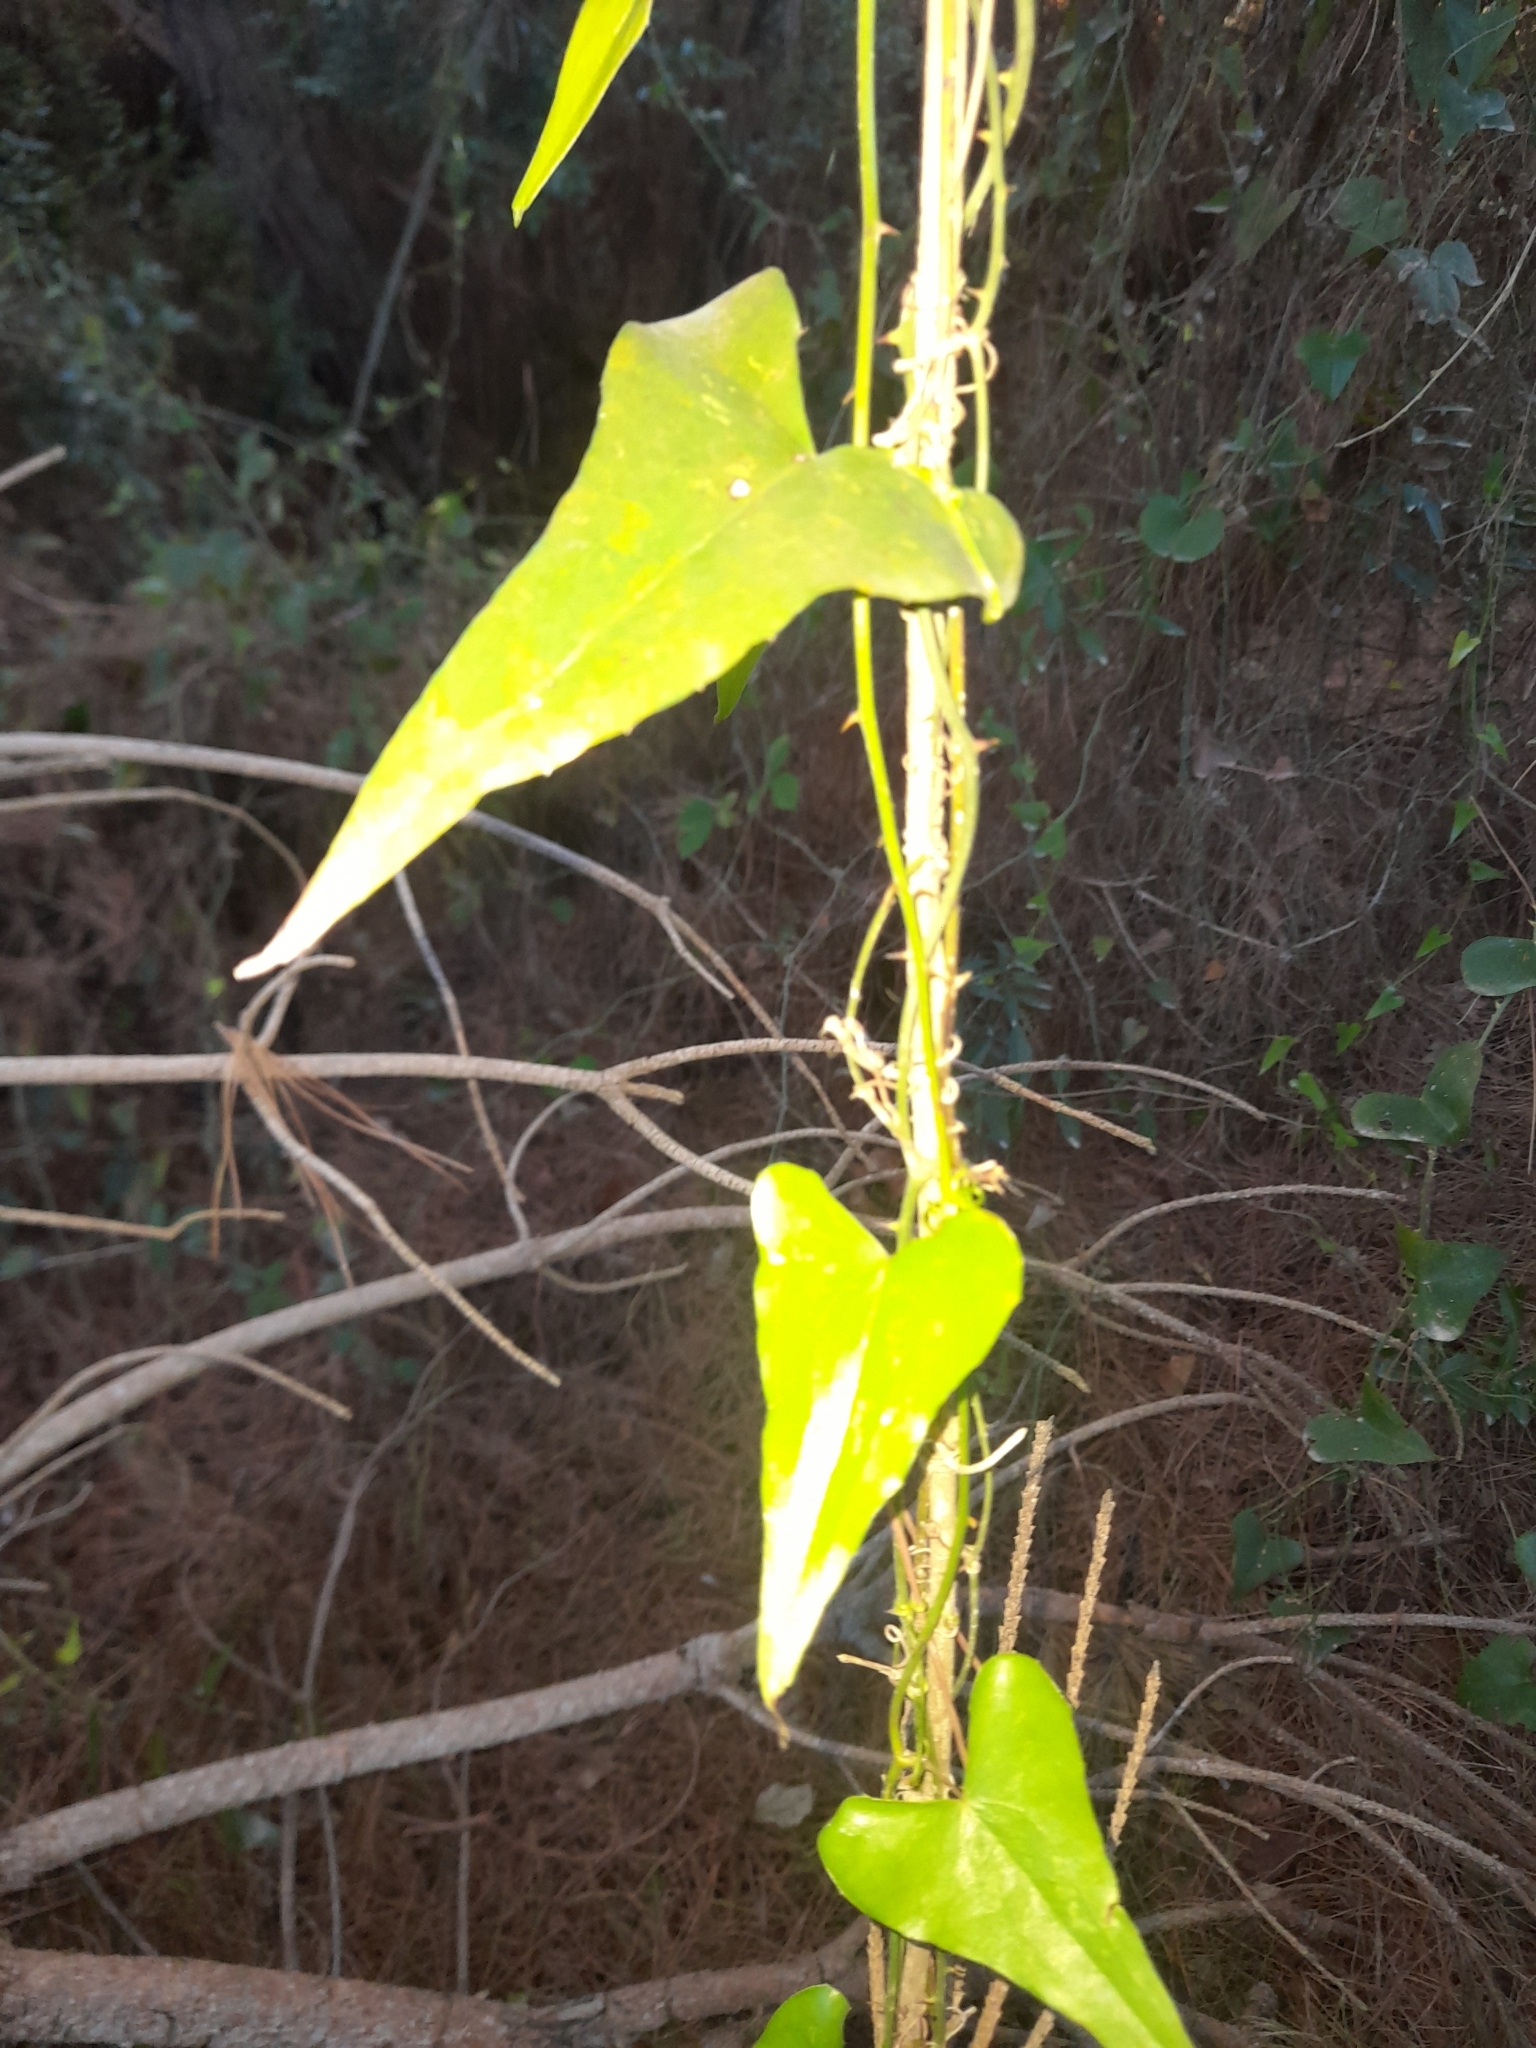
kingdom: Plantae
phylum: Tracheophyta
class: Liliopsida
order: Liliales
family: Smilacaceae
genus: Smilax
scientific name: Smilax aspera
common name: Common smilax
